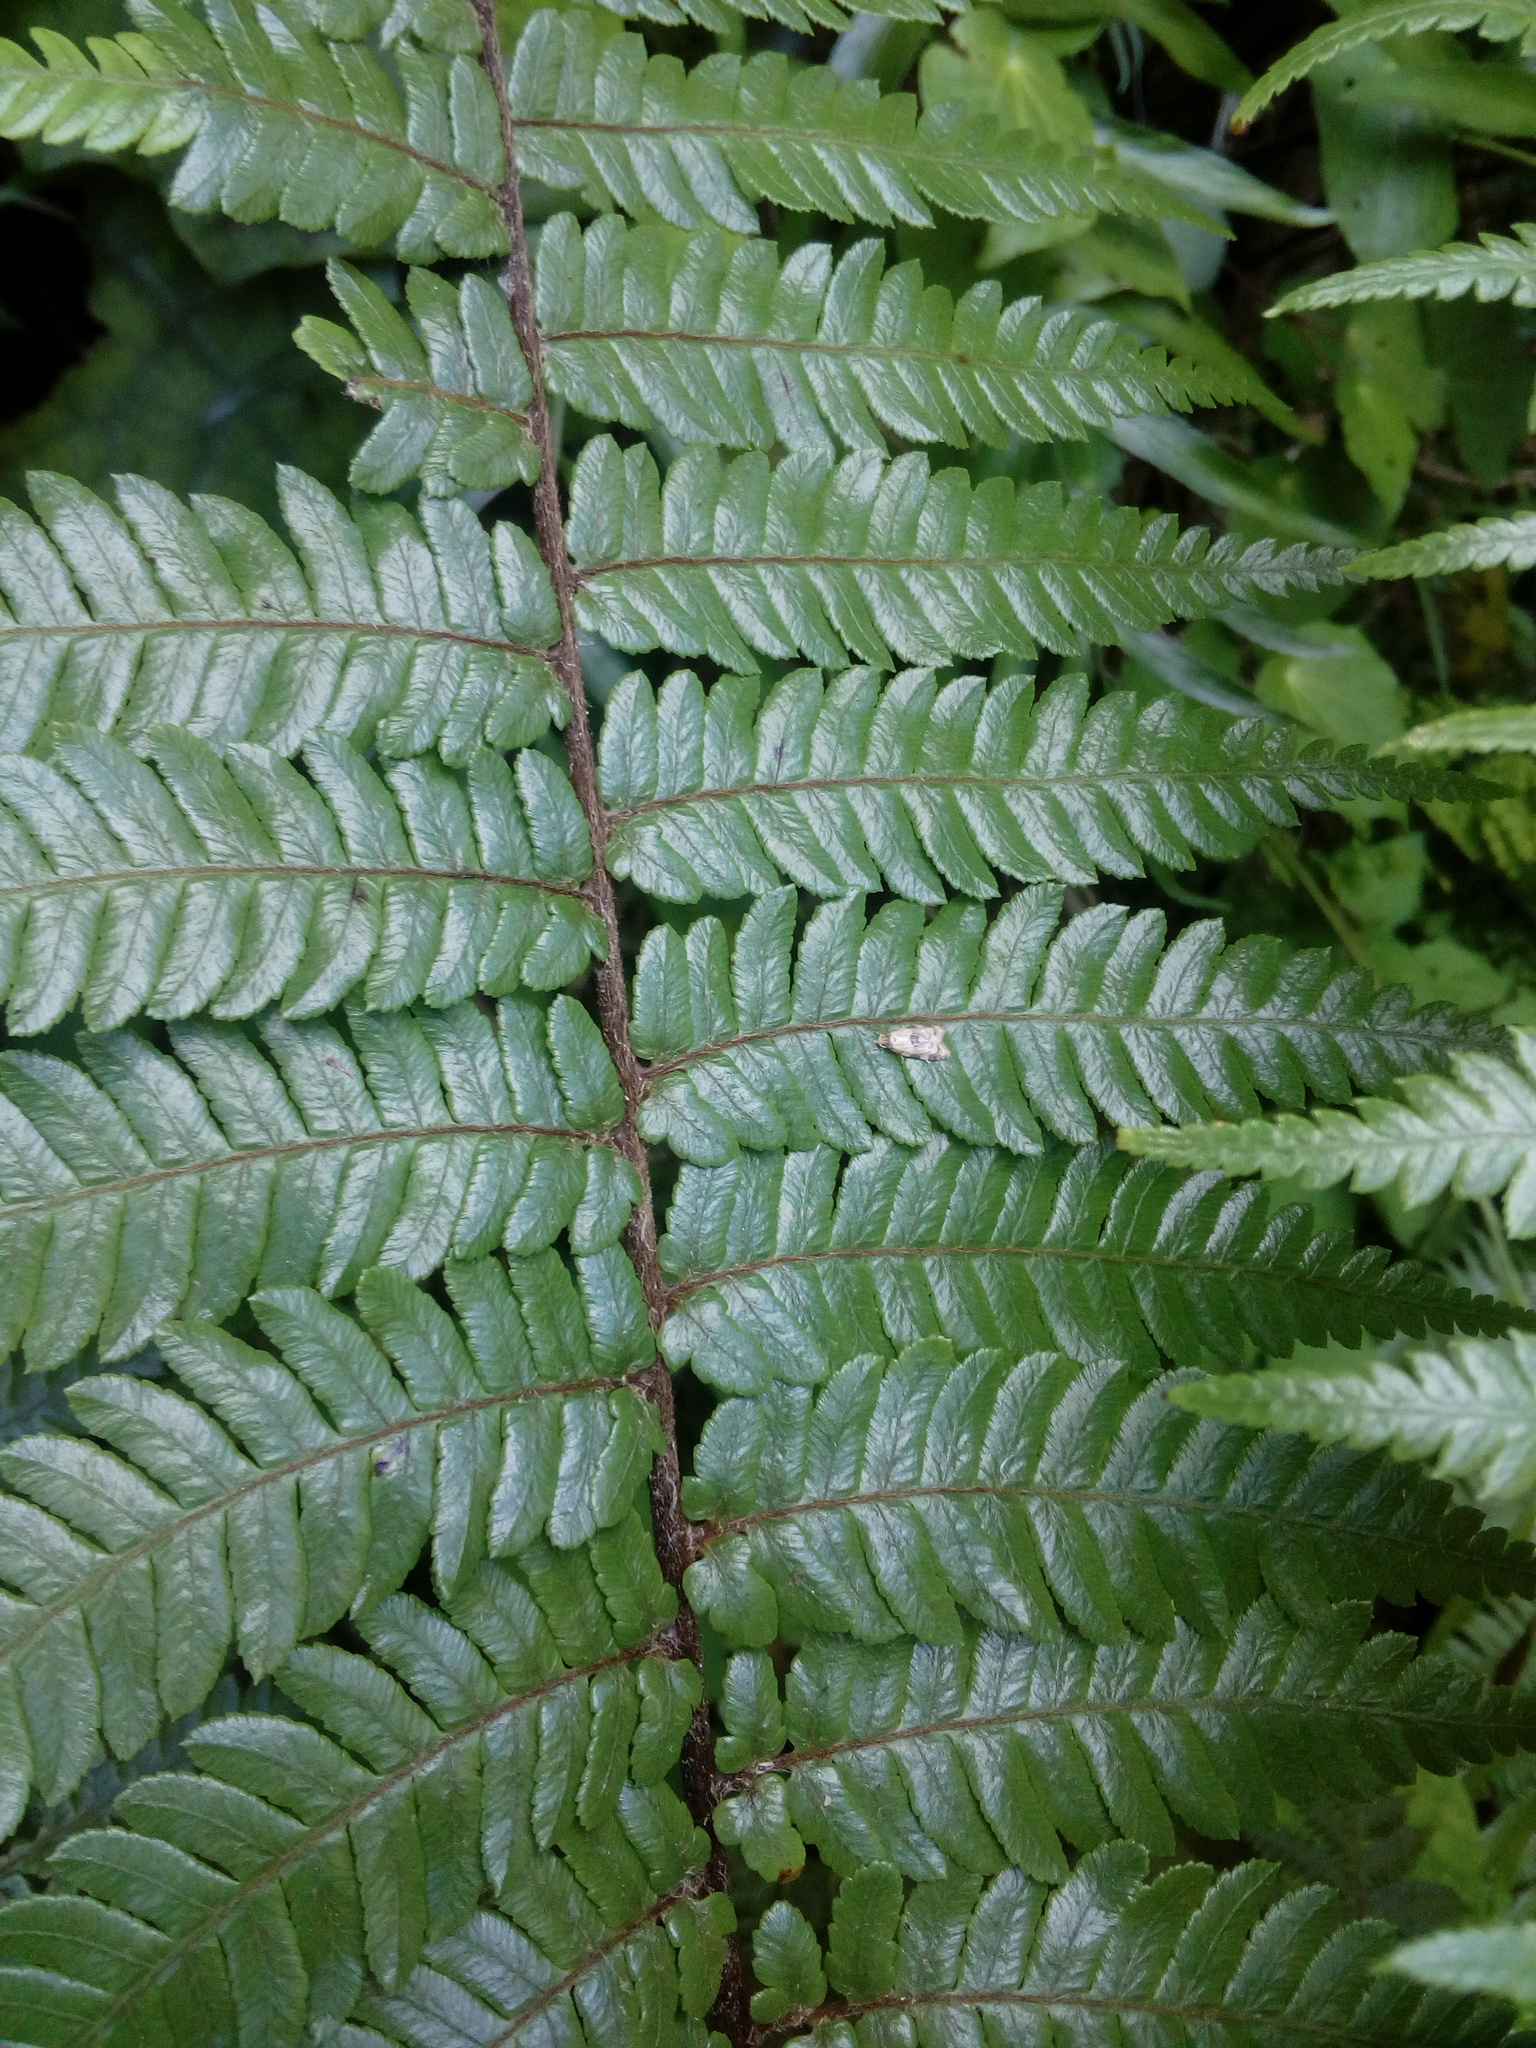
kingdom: Animalia
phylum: Arthropoda
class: Insecta
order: Lepidoptera
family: Tortricidae
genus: Dipterina
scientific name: Dipterina imbriferana
